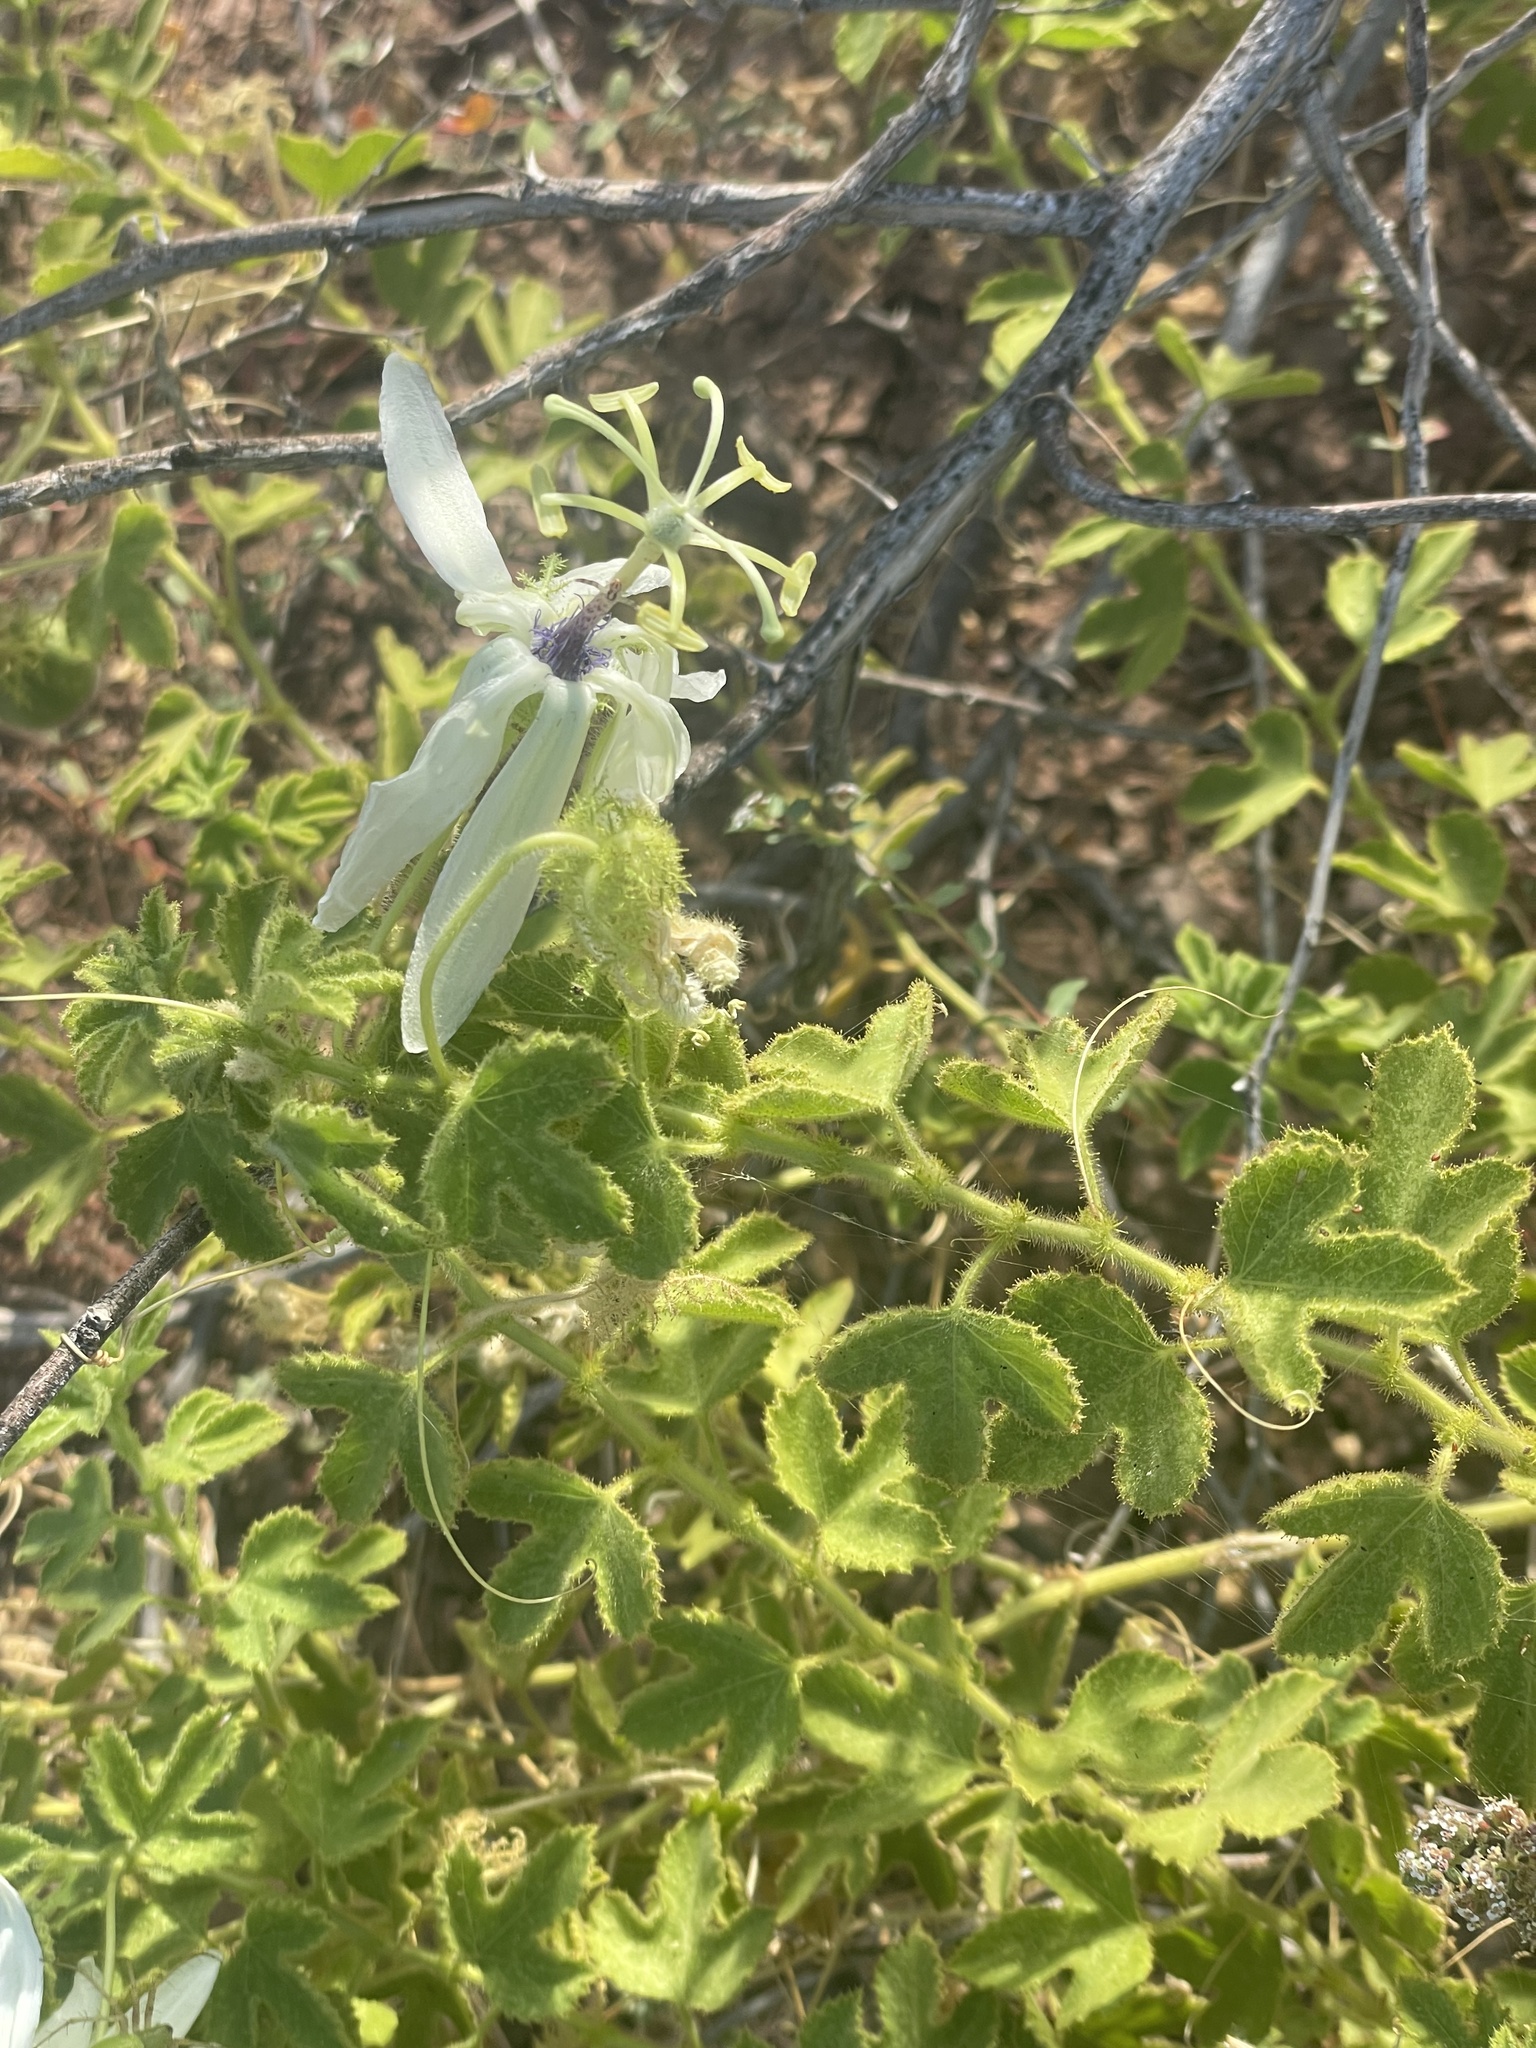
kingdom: Plantae
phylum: Tracheophyta
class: Magnoliopsida
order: Malpighiales
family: Passifloraceae
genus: Passiflora
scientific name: Passiflora palmeri
